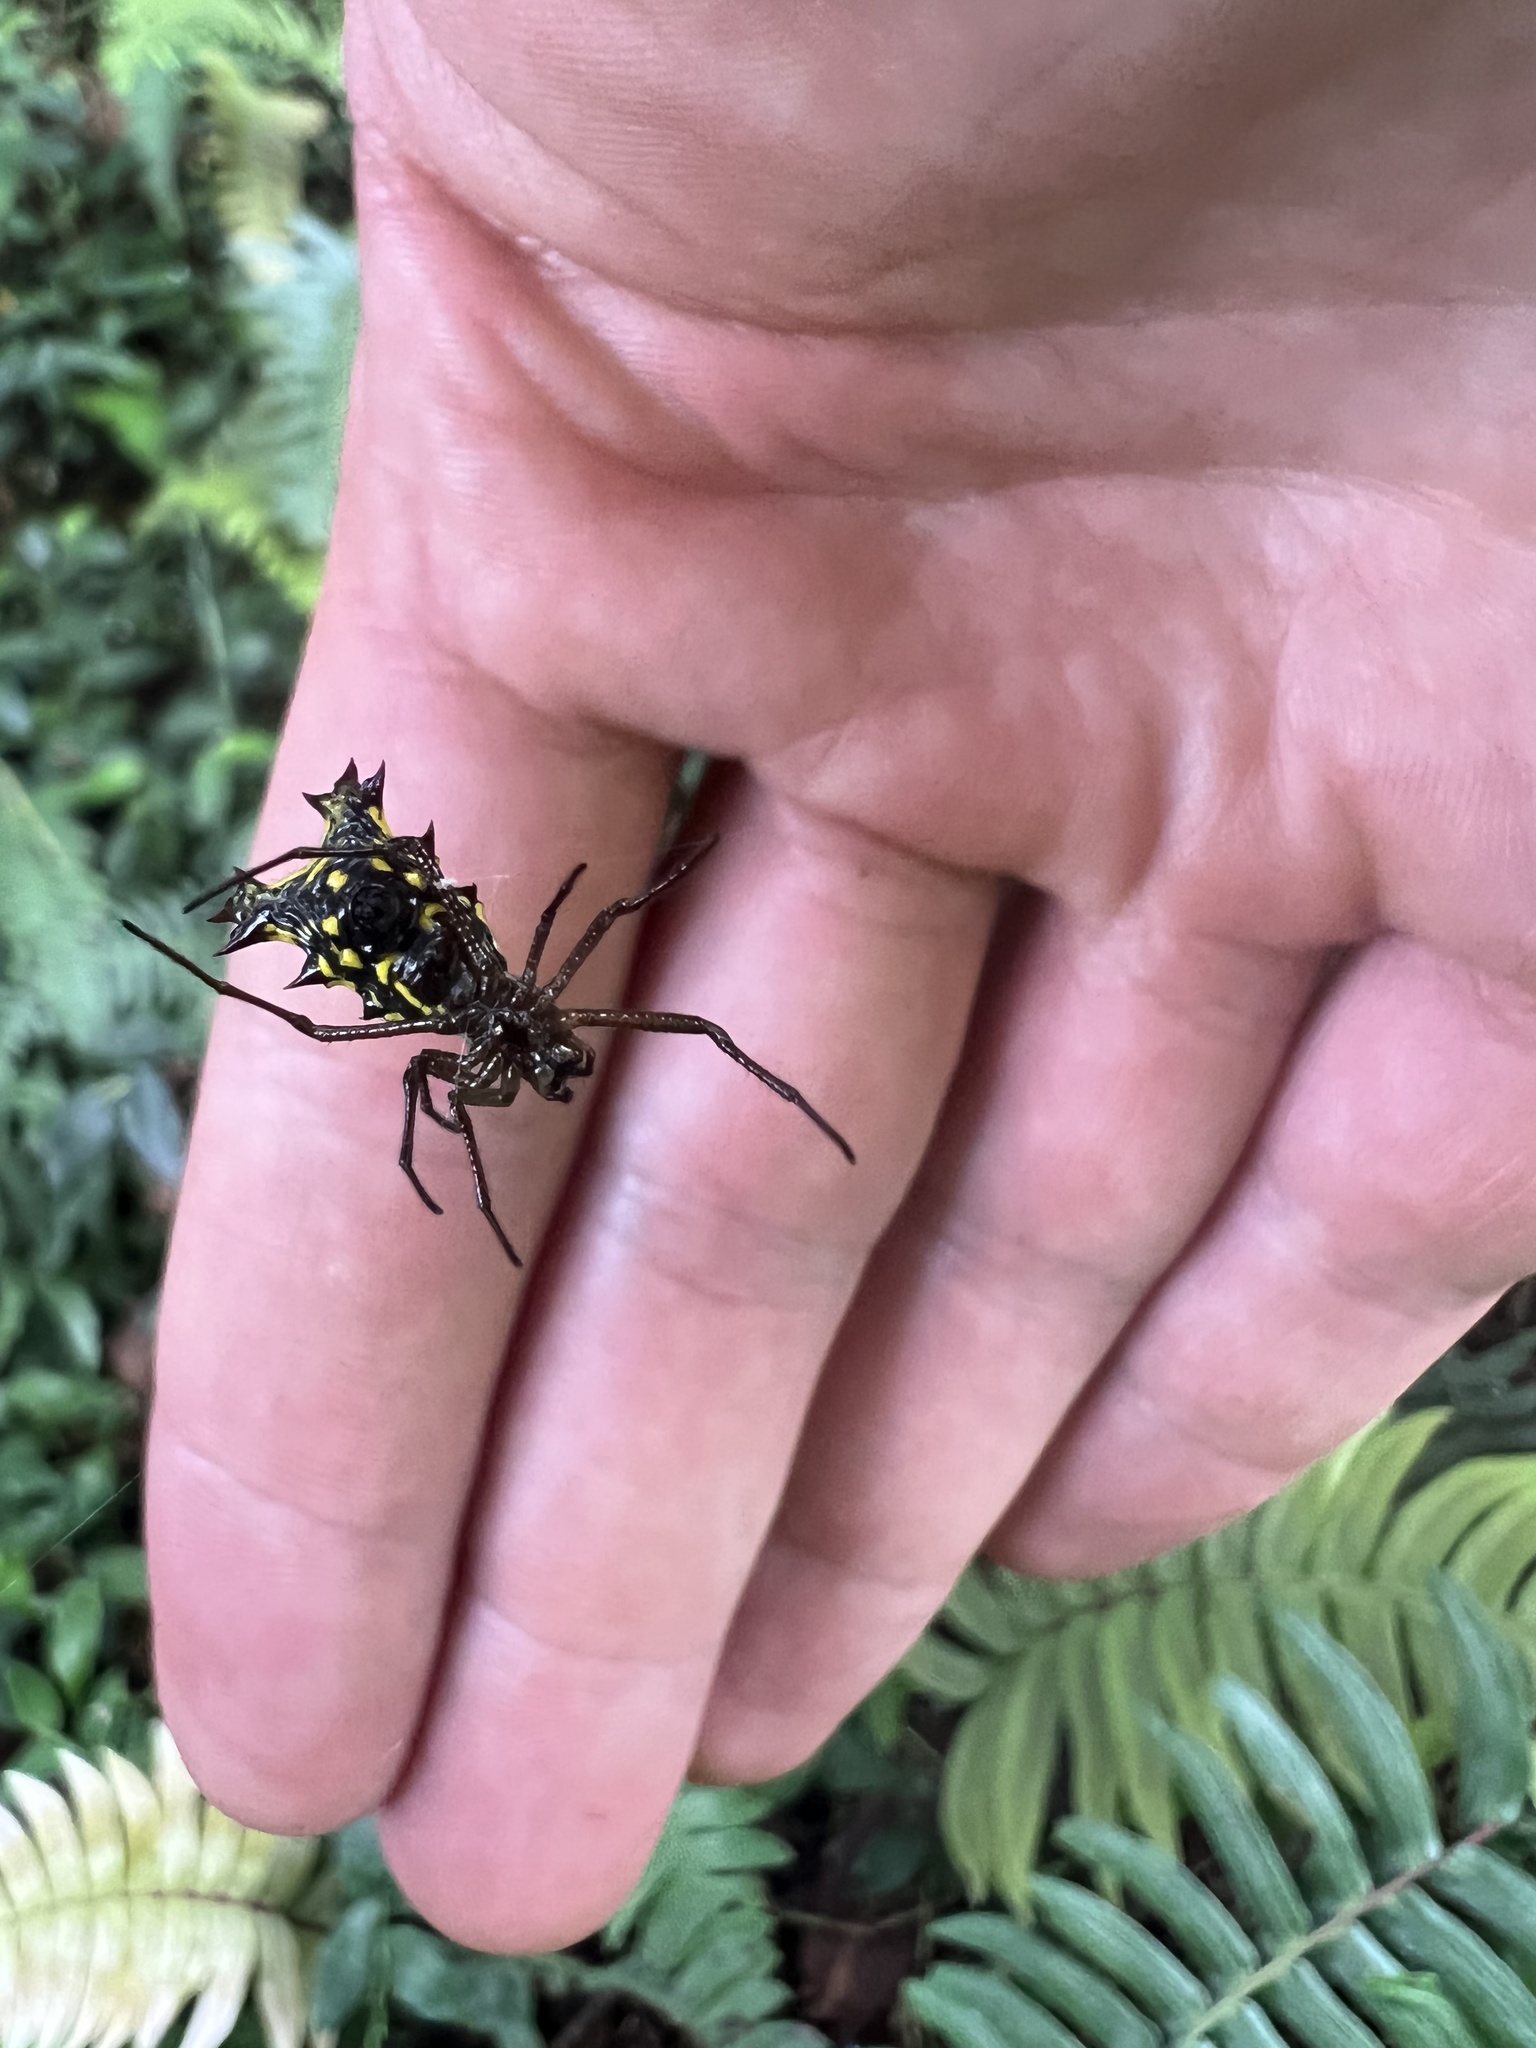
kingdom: Animalia
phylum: Arthropoda
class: Arachnida
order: Araneae
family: Araneidae
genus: Micrathena
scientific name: Micrathena decorata
